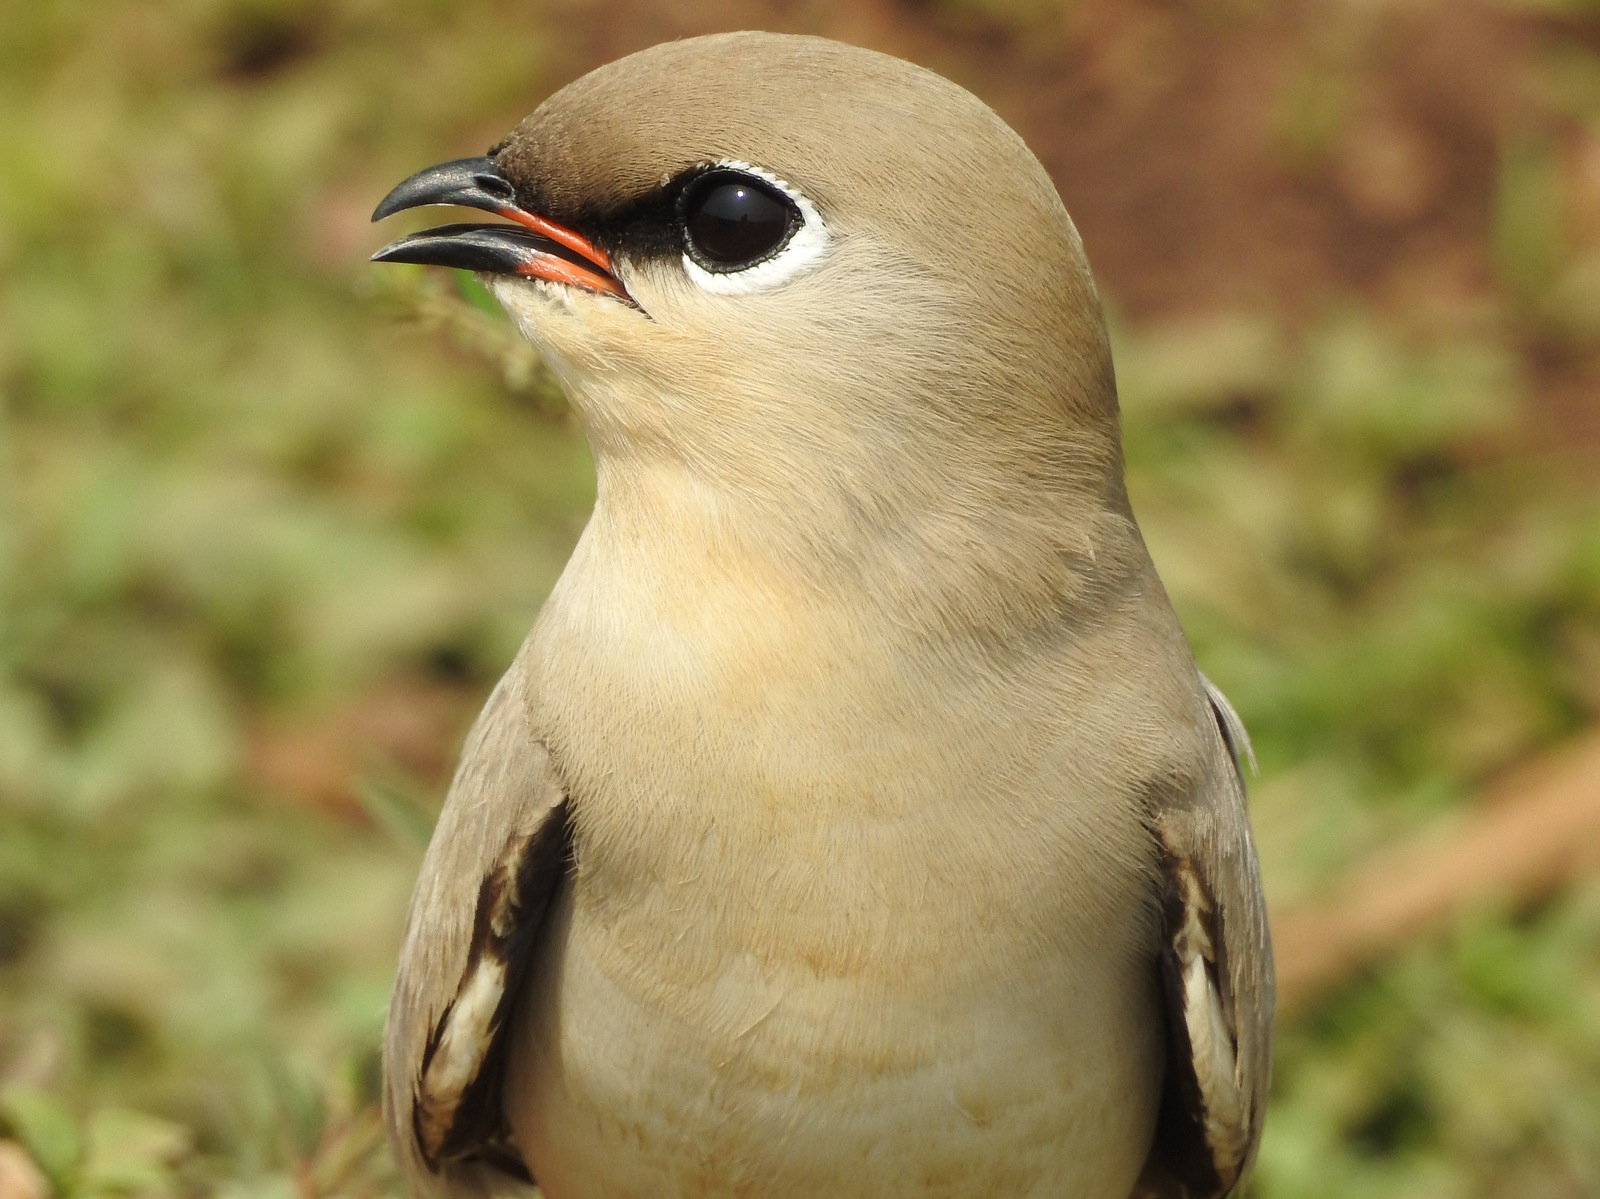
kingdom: Animalia
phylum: Chordata
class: Aves
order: Charadriiformes
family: Glareolidae
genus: Glareola
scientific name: Glareola lactea
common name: Small pratincole
